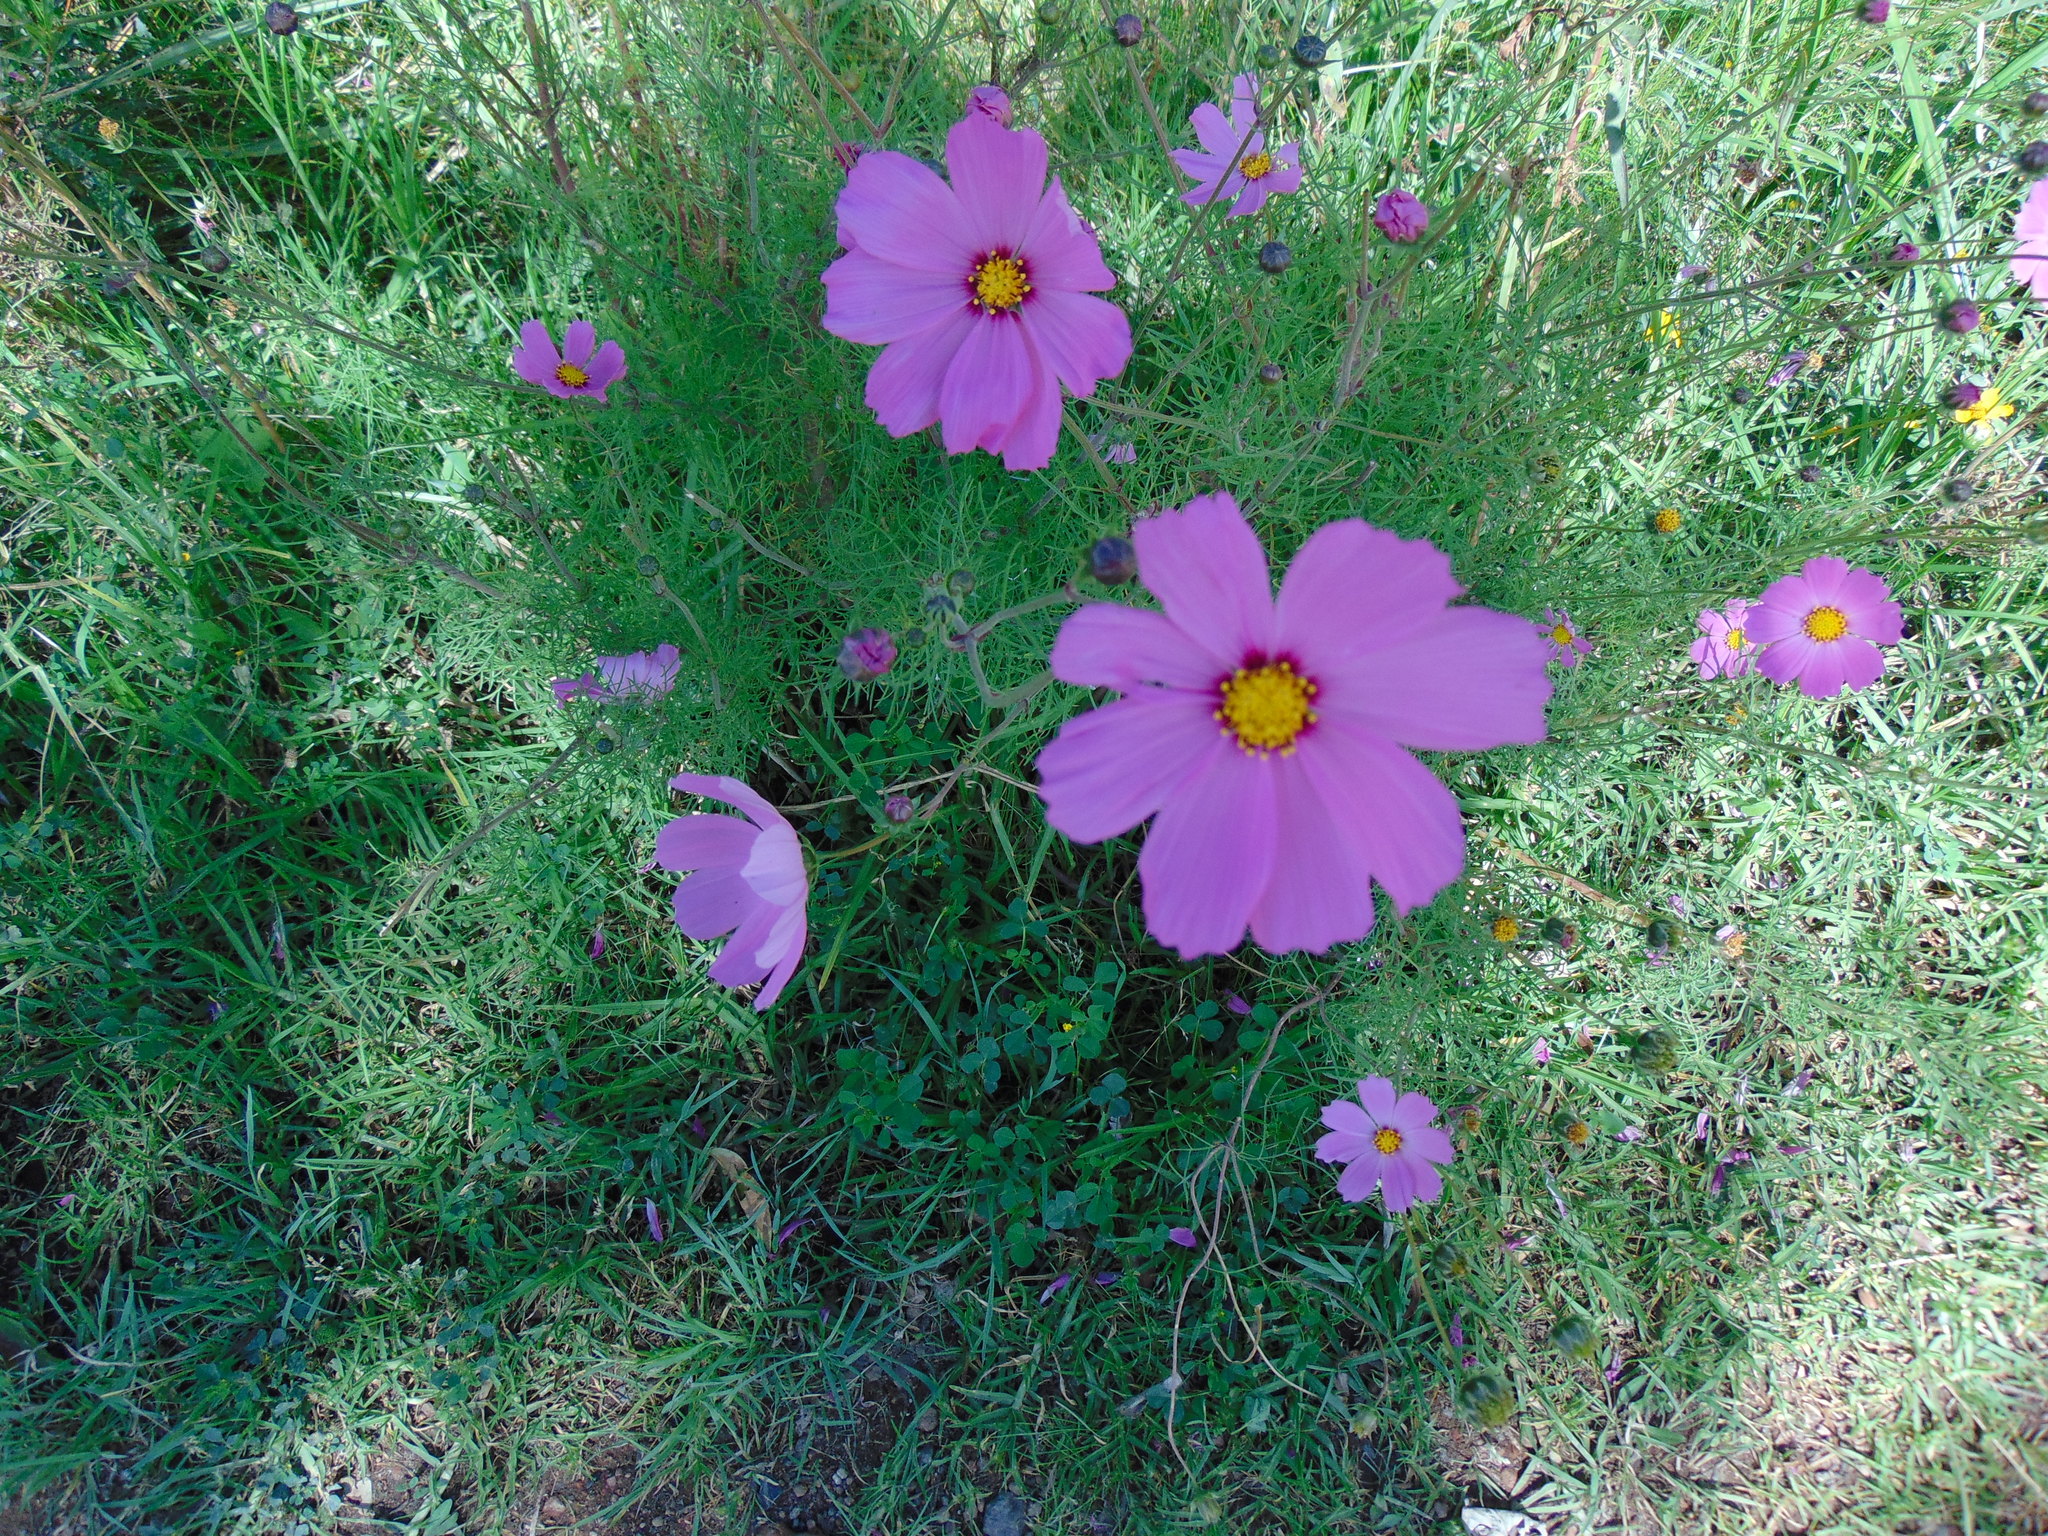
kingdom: Plantae
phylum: Tracheophyta
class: Magnoliopsida
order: Asterales
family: Asteraceae
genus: Cosmos
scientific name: Cosmos bipinnatus
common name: Garden cosmos
